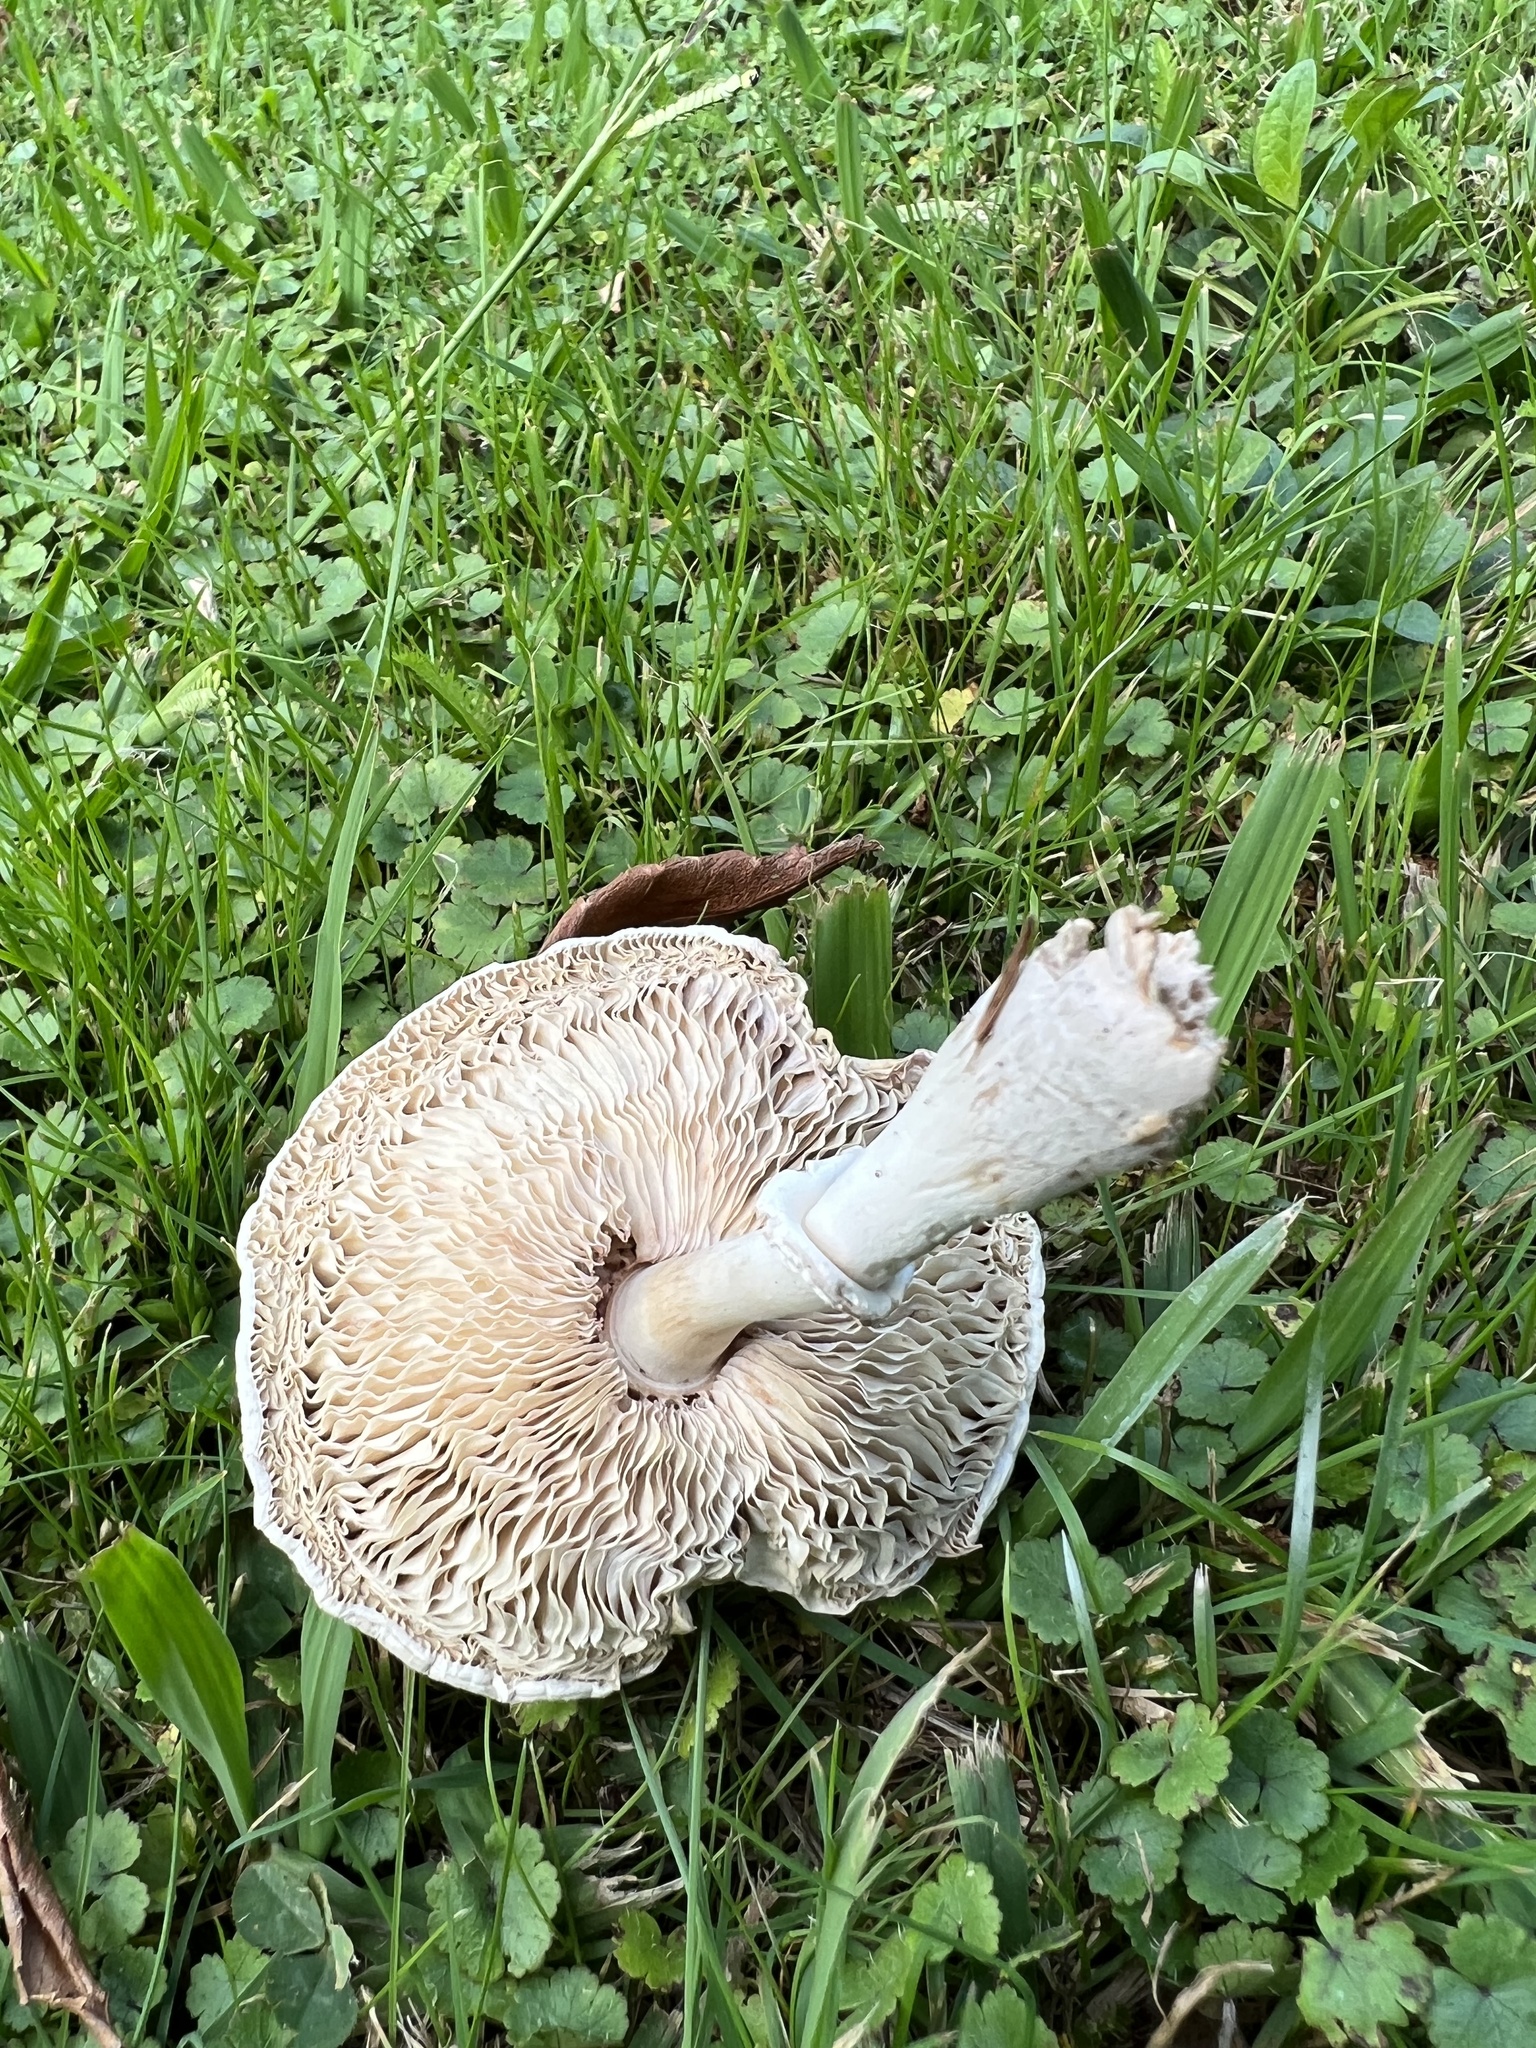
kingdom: Fungi
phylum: Basidiomycota
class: Agaricomycetes
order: Agaricales
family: Agaricaceae
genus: Leucoagaricus
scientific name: Leucoagaricus leucothites
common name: White dapperling
